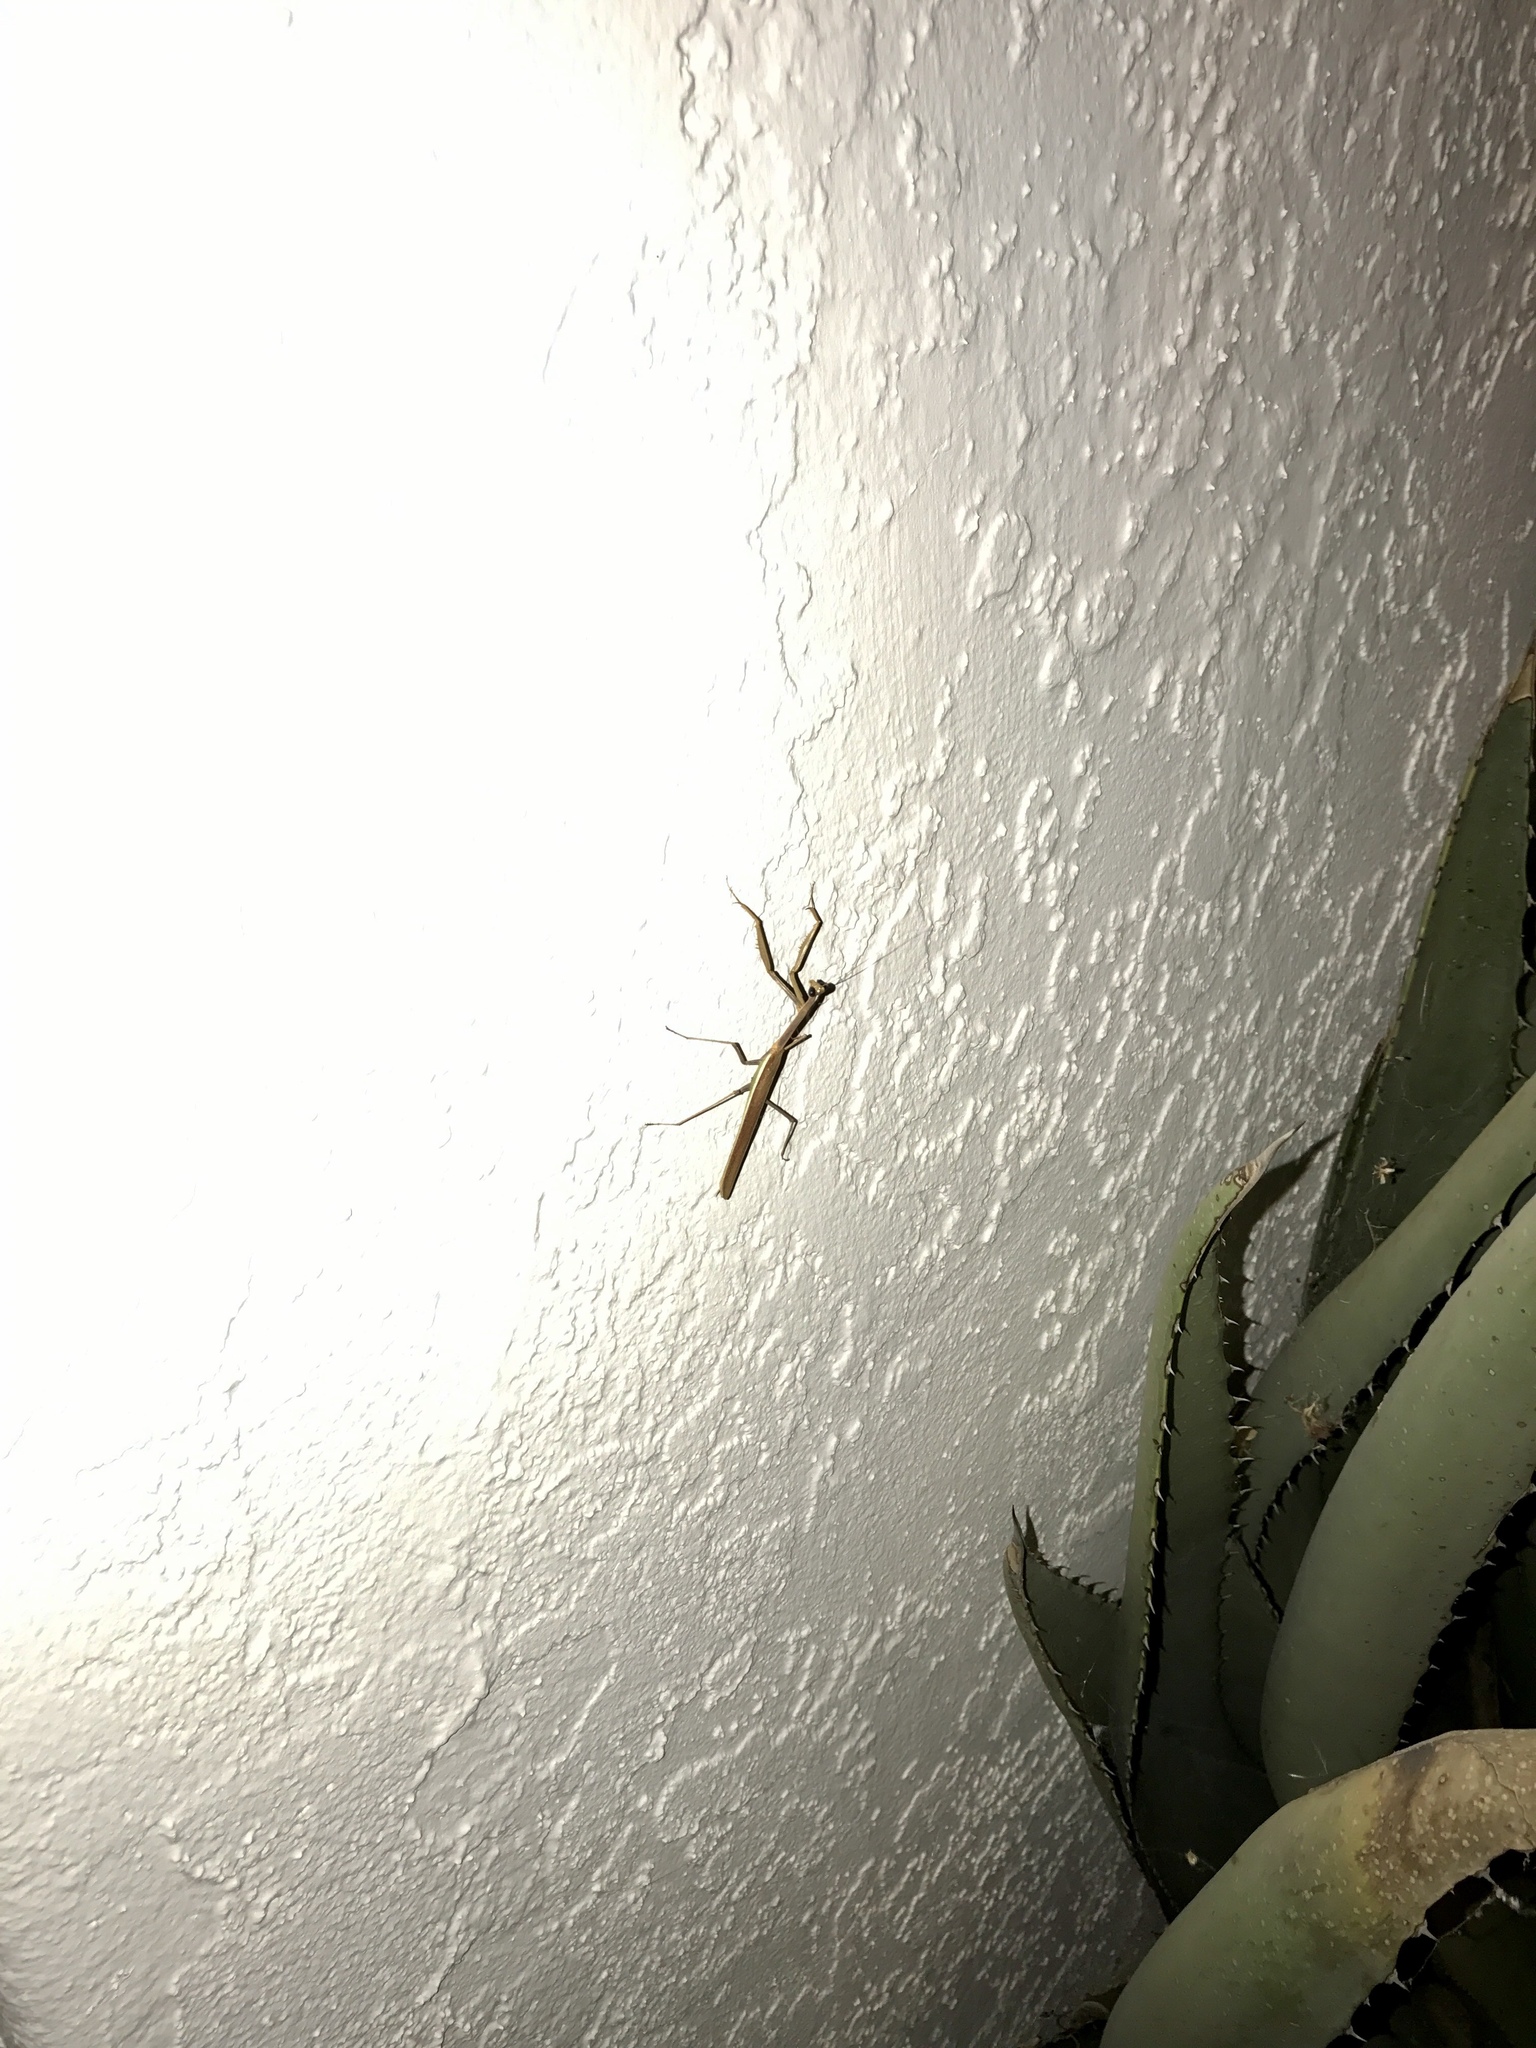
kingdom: Animalia
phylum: Arthropoda
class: Insecta
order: Mantodea
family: Mantidae
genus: Stagmomantis
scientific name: Stagmomantis gracilipes
